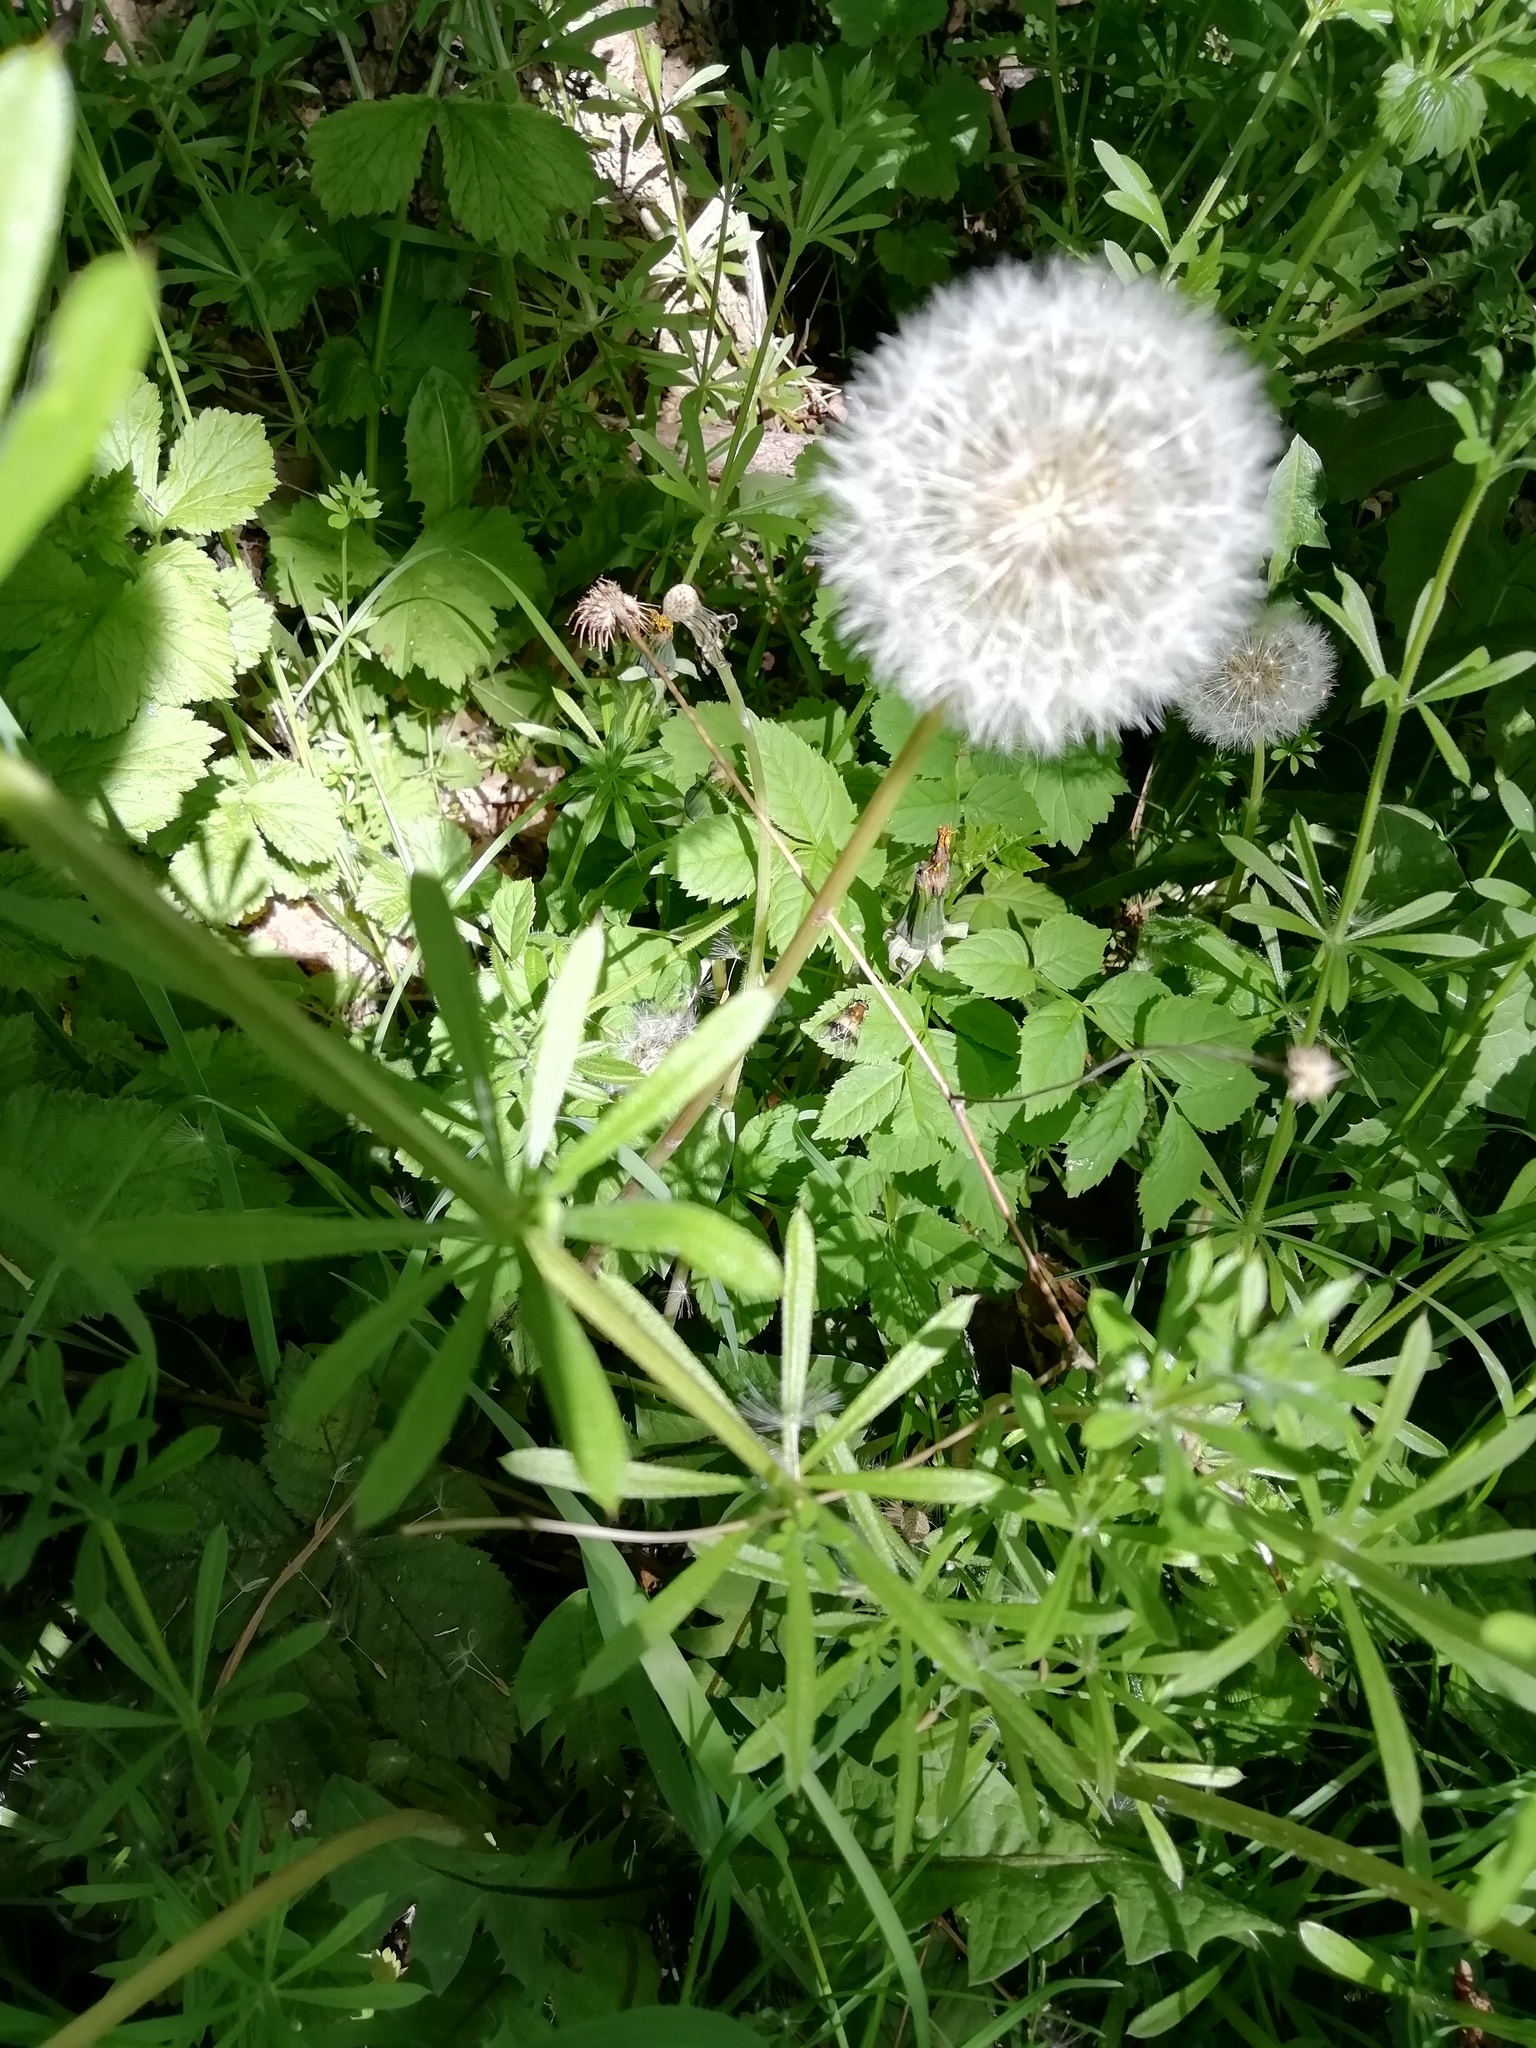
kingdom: Animalia
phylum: Arthropoda
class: Insecta
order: Diptera
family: Syrphidae
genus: Leucozona
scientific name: Leucozona lucorum
